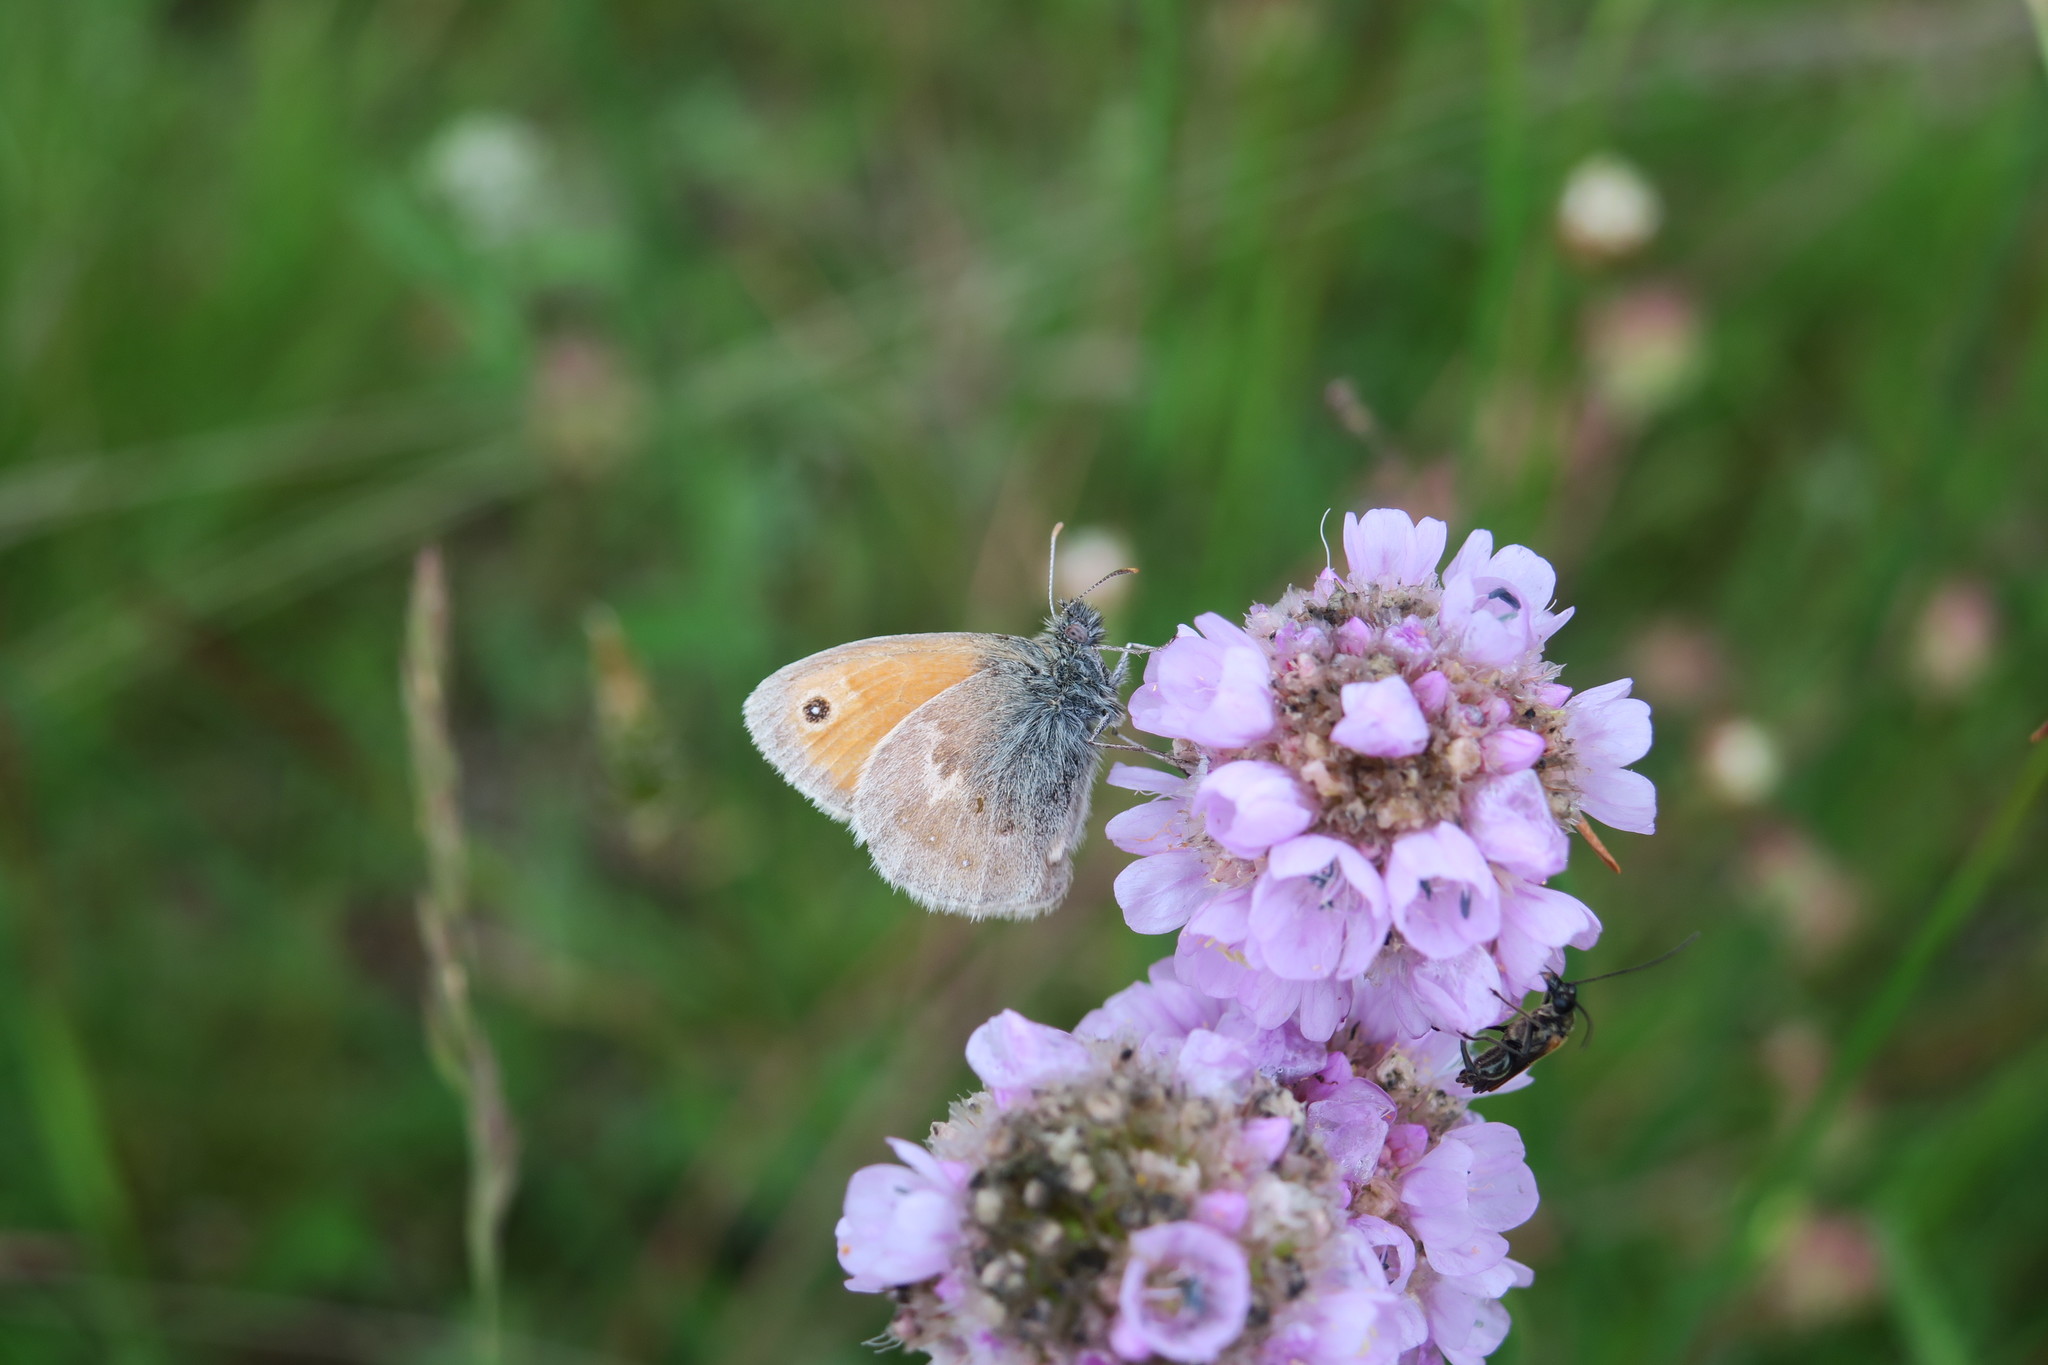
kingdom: Animalia
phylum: Arthropoda
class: Insecta
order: Lepidoptera
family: Nymphalidae
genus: Coenonympha
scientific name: Coenonympha pamphilus
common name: Small heath
